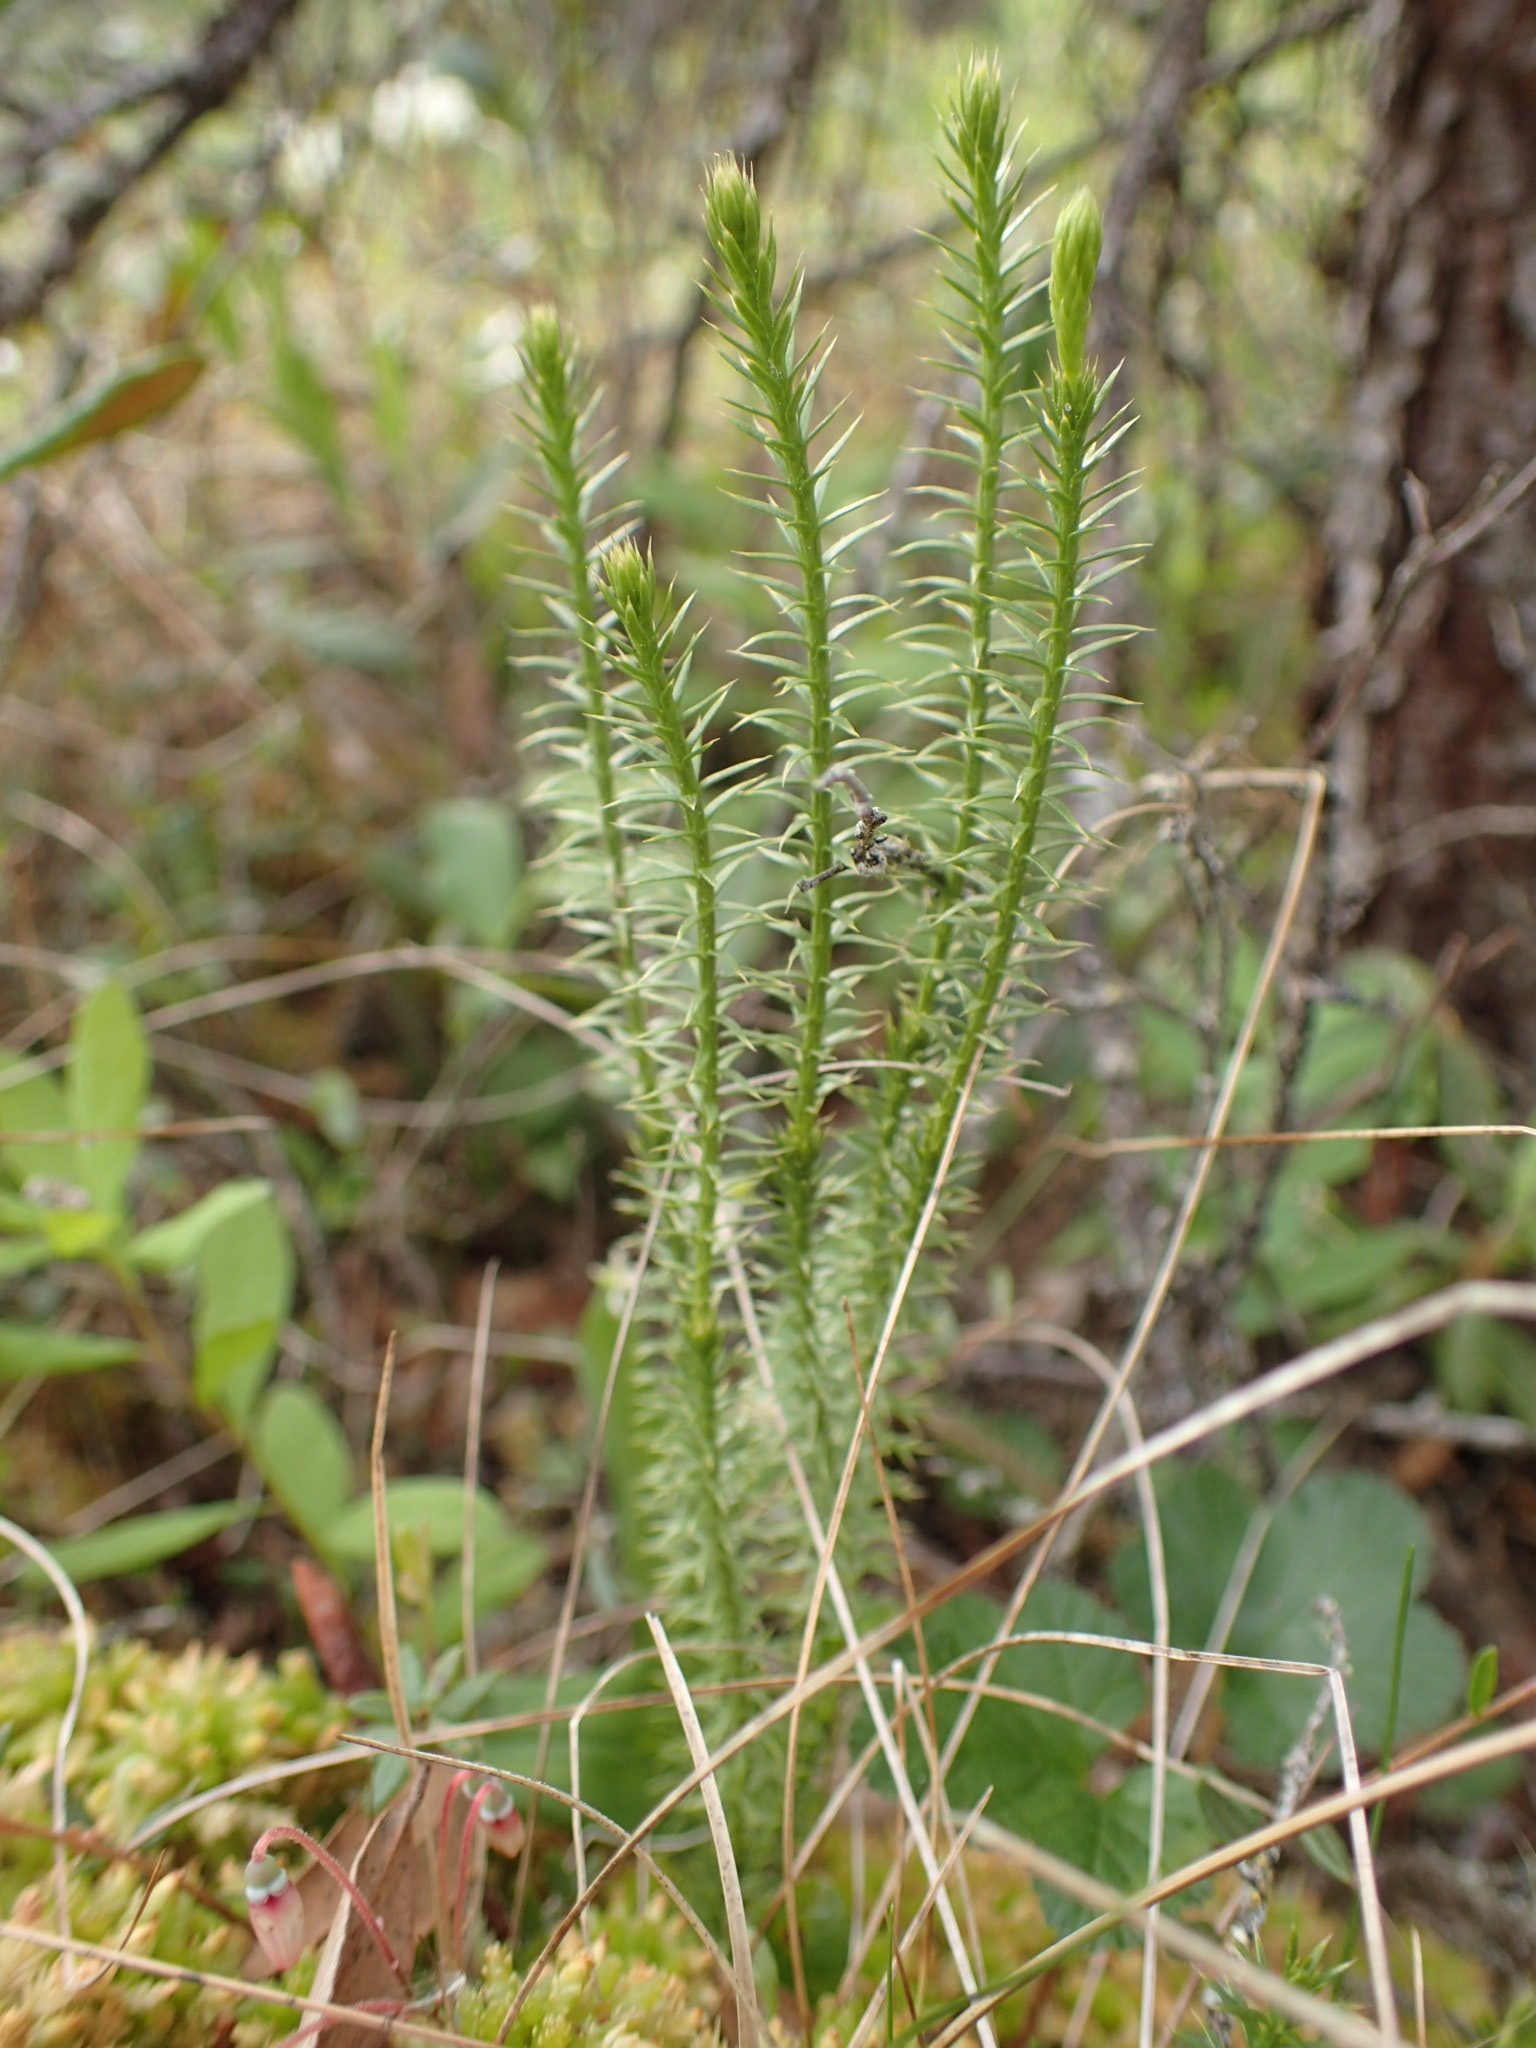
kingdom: Plantae
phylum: Tracheophyta
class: Lycopodiopsida
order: Lycopodiales
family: Lycopodiaceae
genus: Spinulum
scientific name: Spinulum annotinum
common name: Interrupted club-moss
